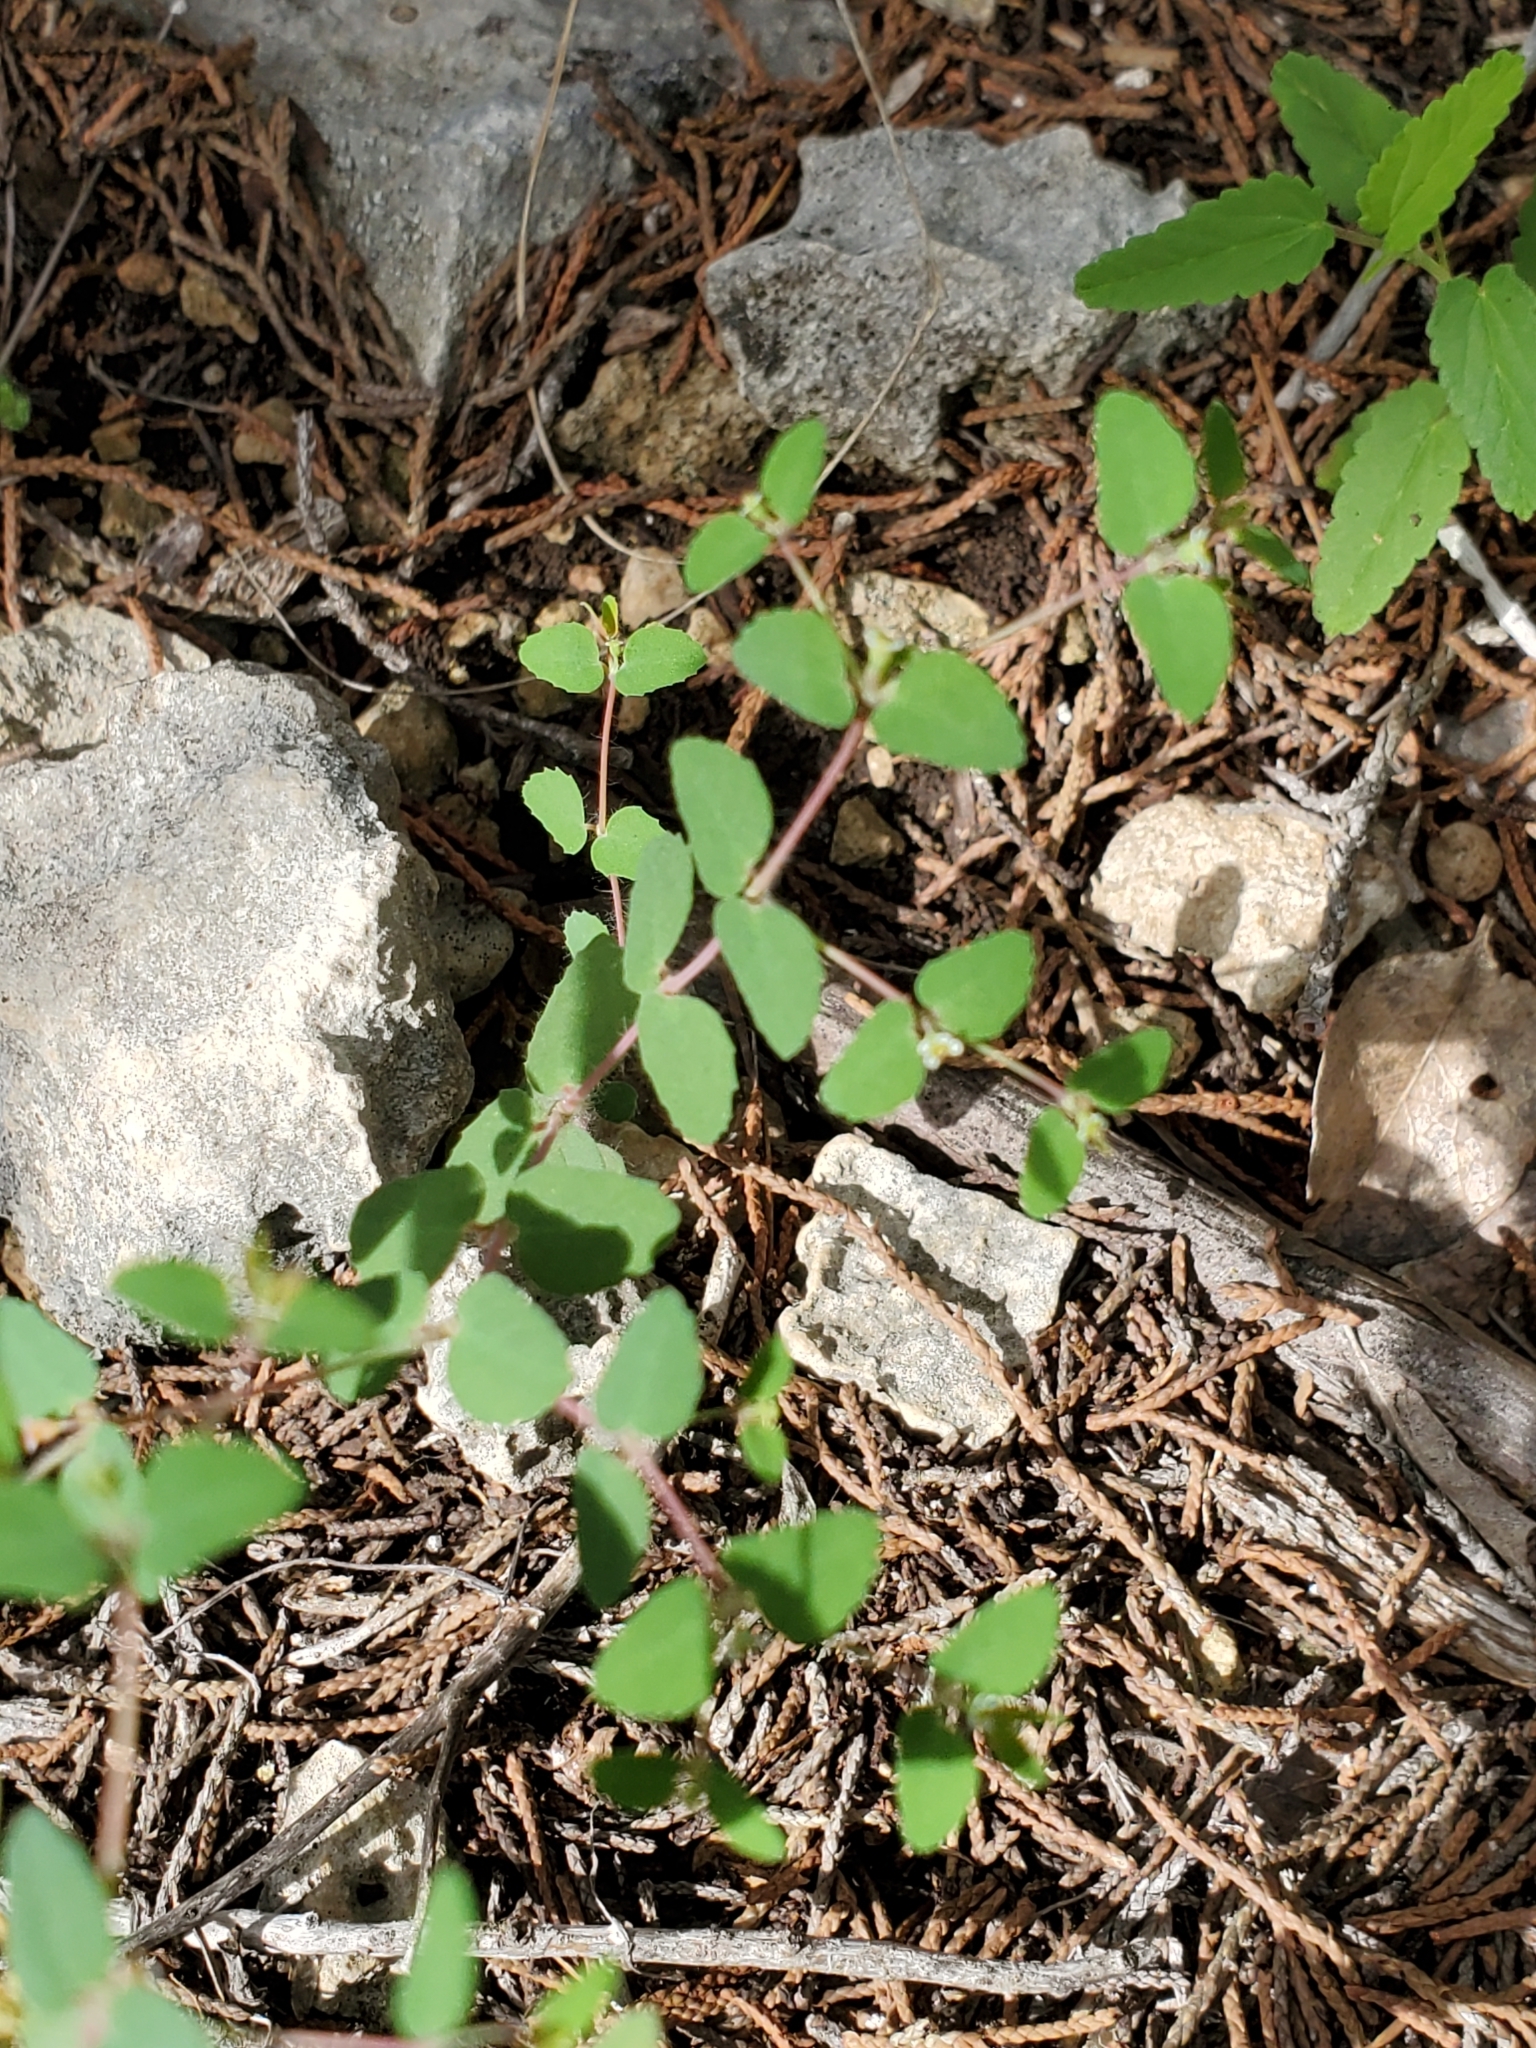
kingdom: Plantae
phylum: Tracheophyta
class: Magnoliopsida
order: Malpighiales
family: Euphorbiaceae
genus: Euphorbia
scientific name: Euphorbia villifera
